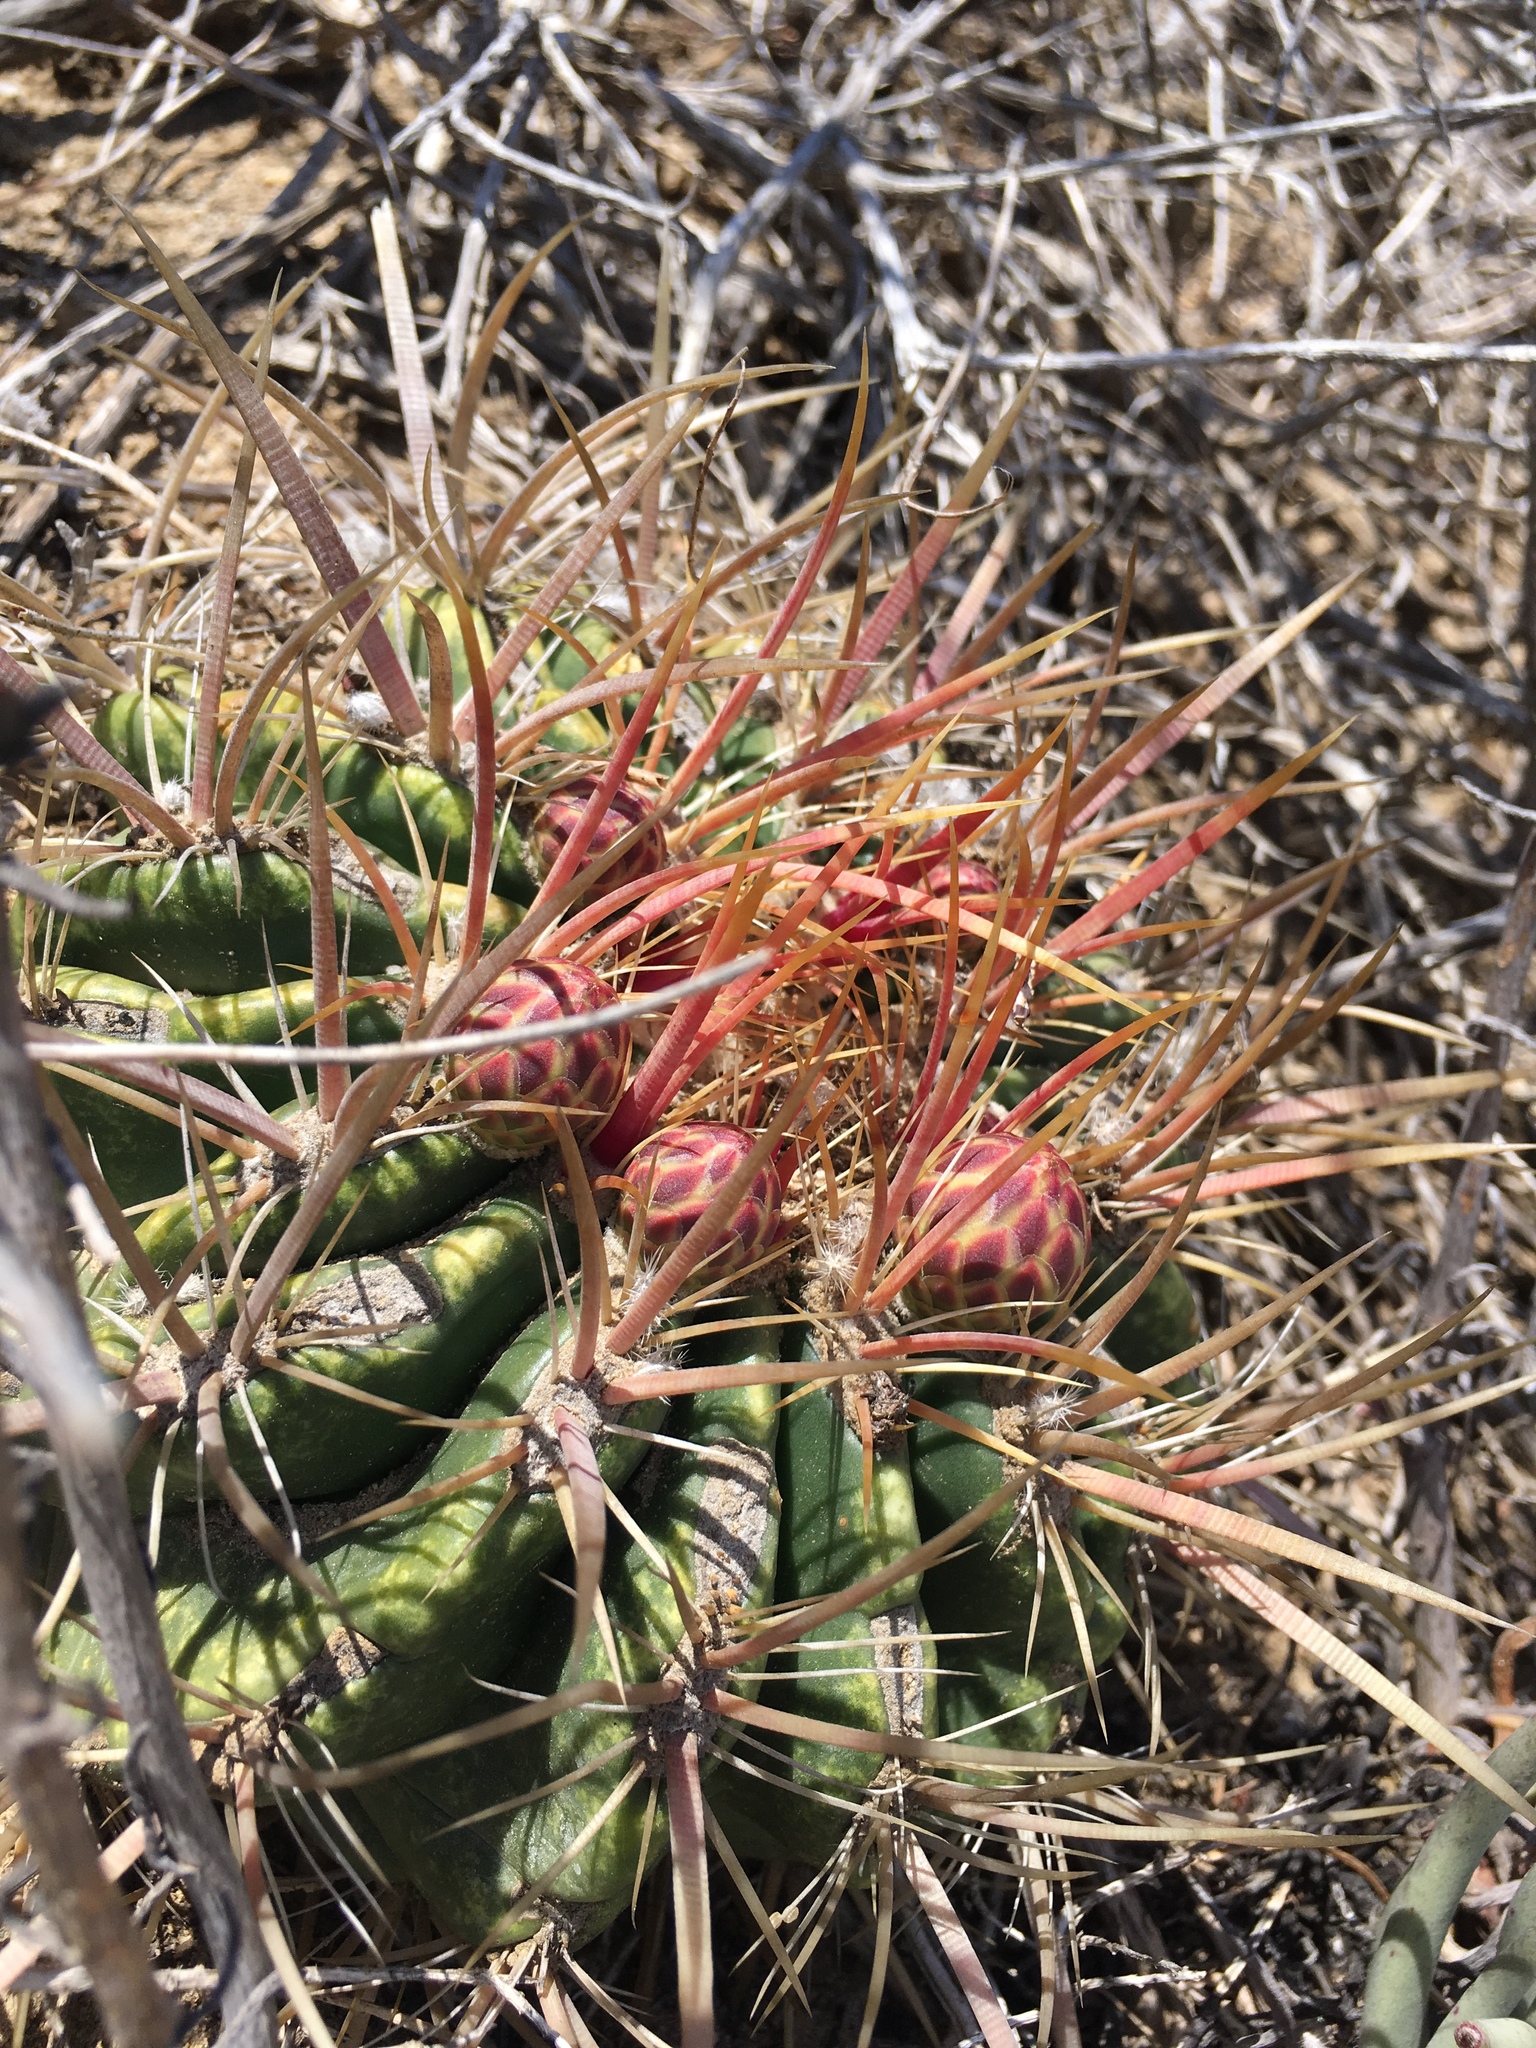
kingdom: Plantae
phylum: Tracheophyta
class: Magnoliopsida
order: Caryophyllales
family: Cactaceae
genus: Ferocactus
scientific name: Ferocactus viridescens
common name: San diego barrel cactus
